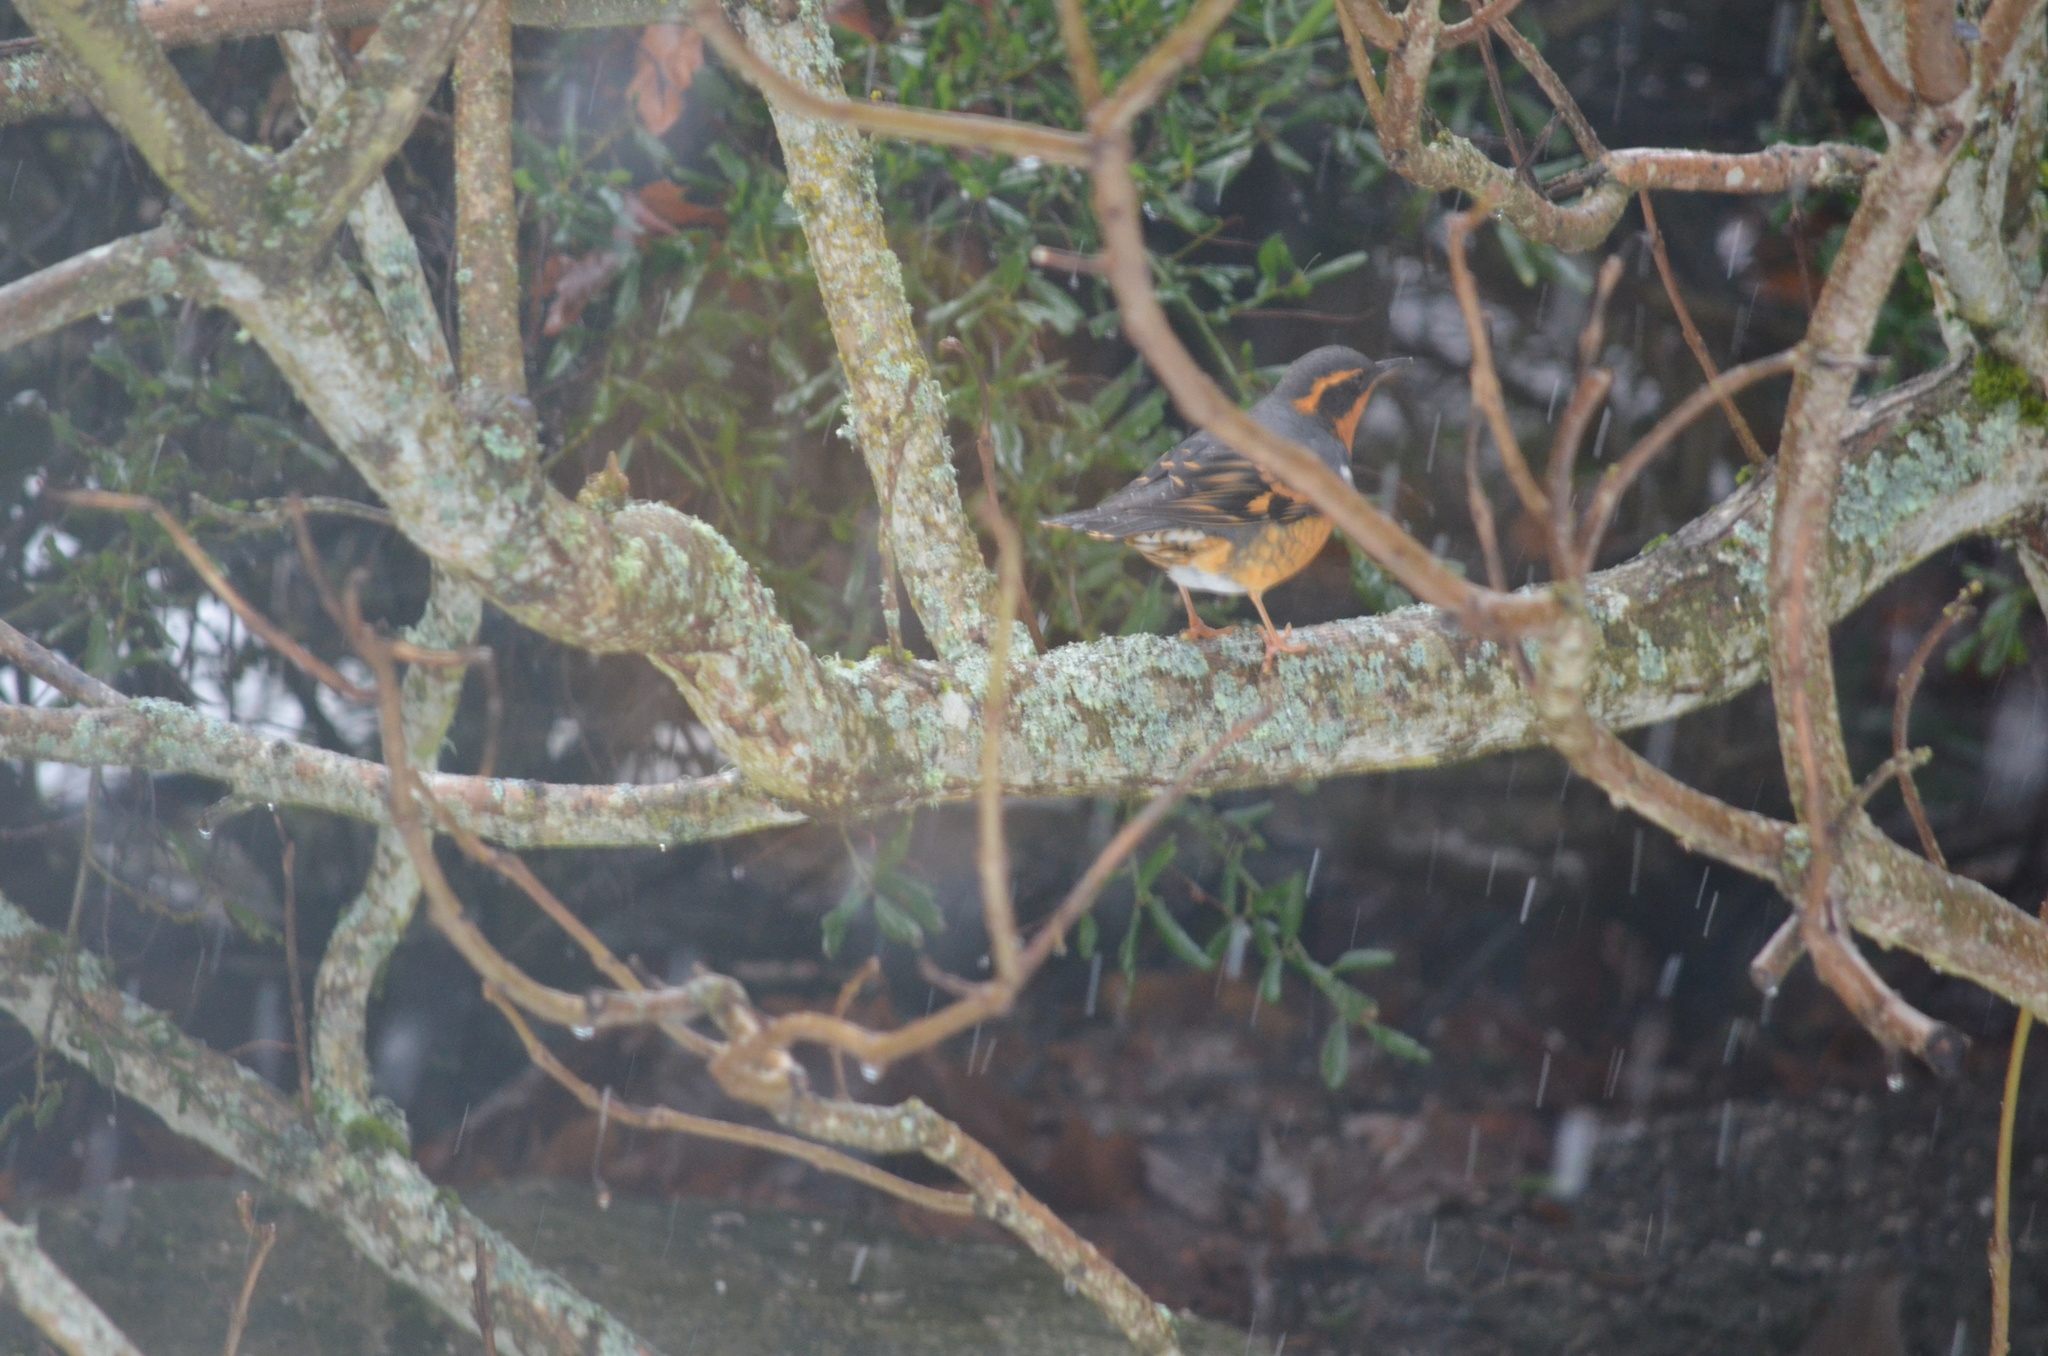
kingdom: Animalia
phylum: Chordata
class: Aves
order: Passeriformes
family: Turdidae
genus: Ixoreus
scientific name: Ixoreus naevius
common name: Varied thrush
